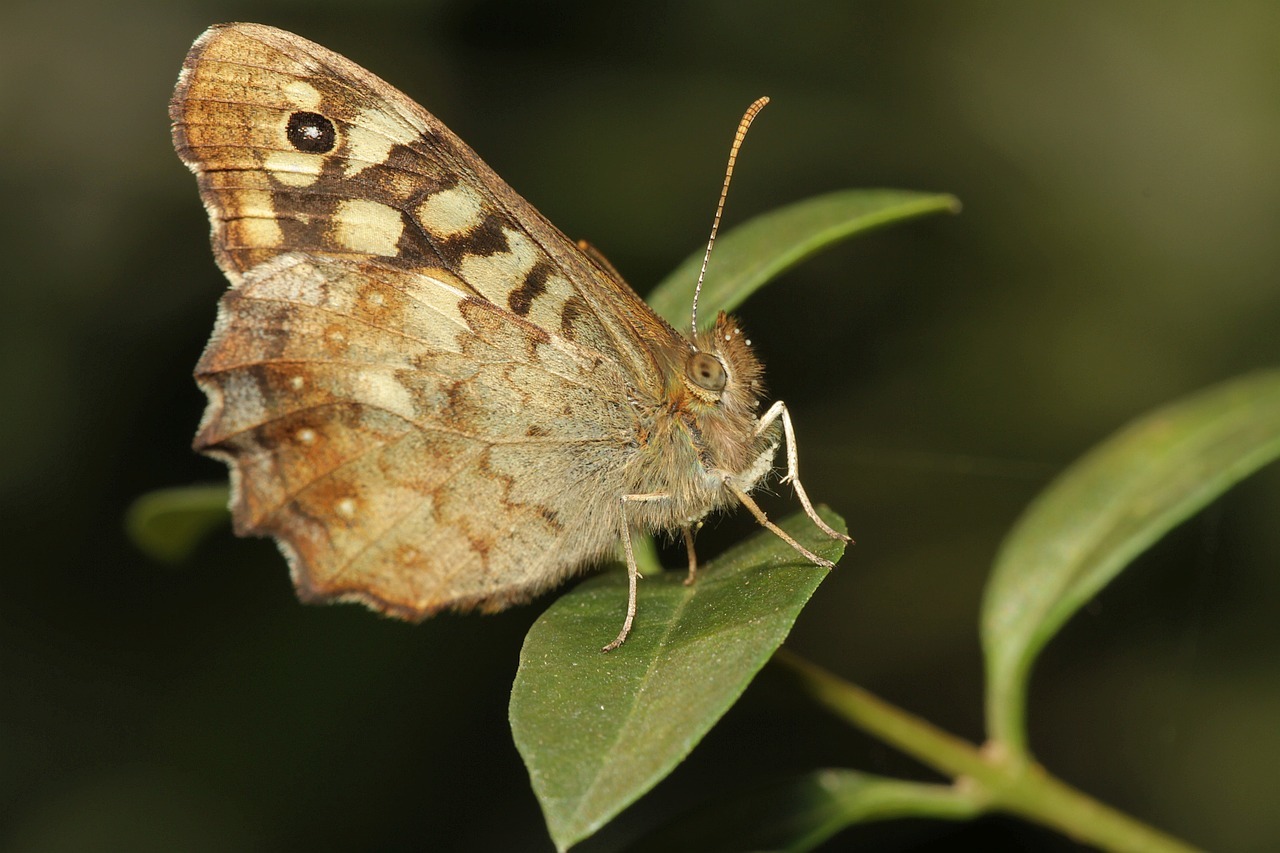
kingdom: Animalia
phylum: Arthropoda
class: Insecta
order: Lepidoptera
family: Nymphalidae
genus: Pararge
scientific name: Pararge aegeria
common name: Speckled wood
